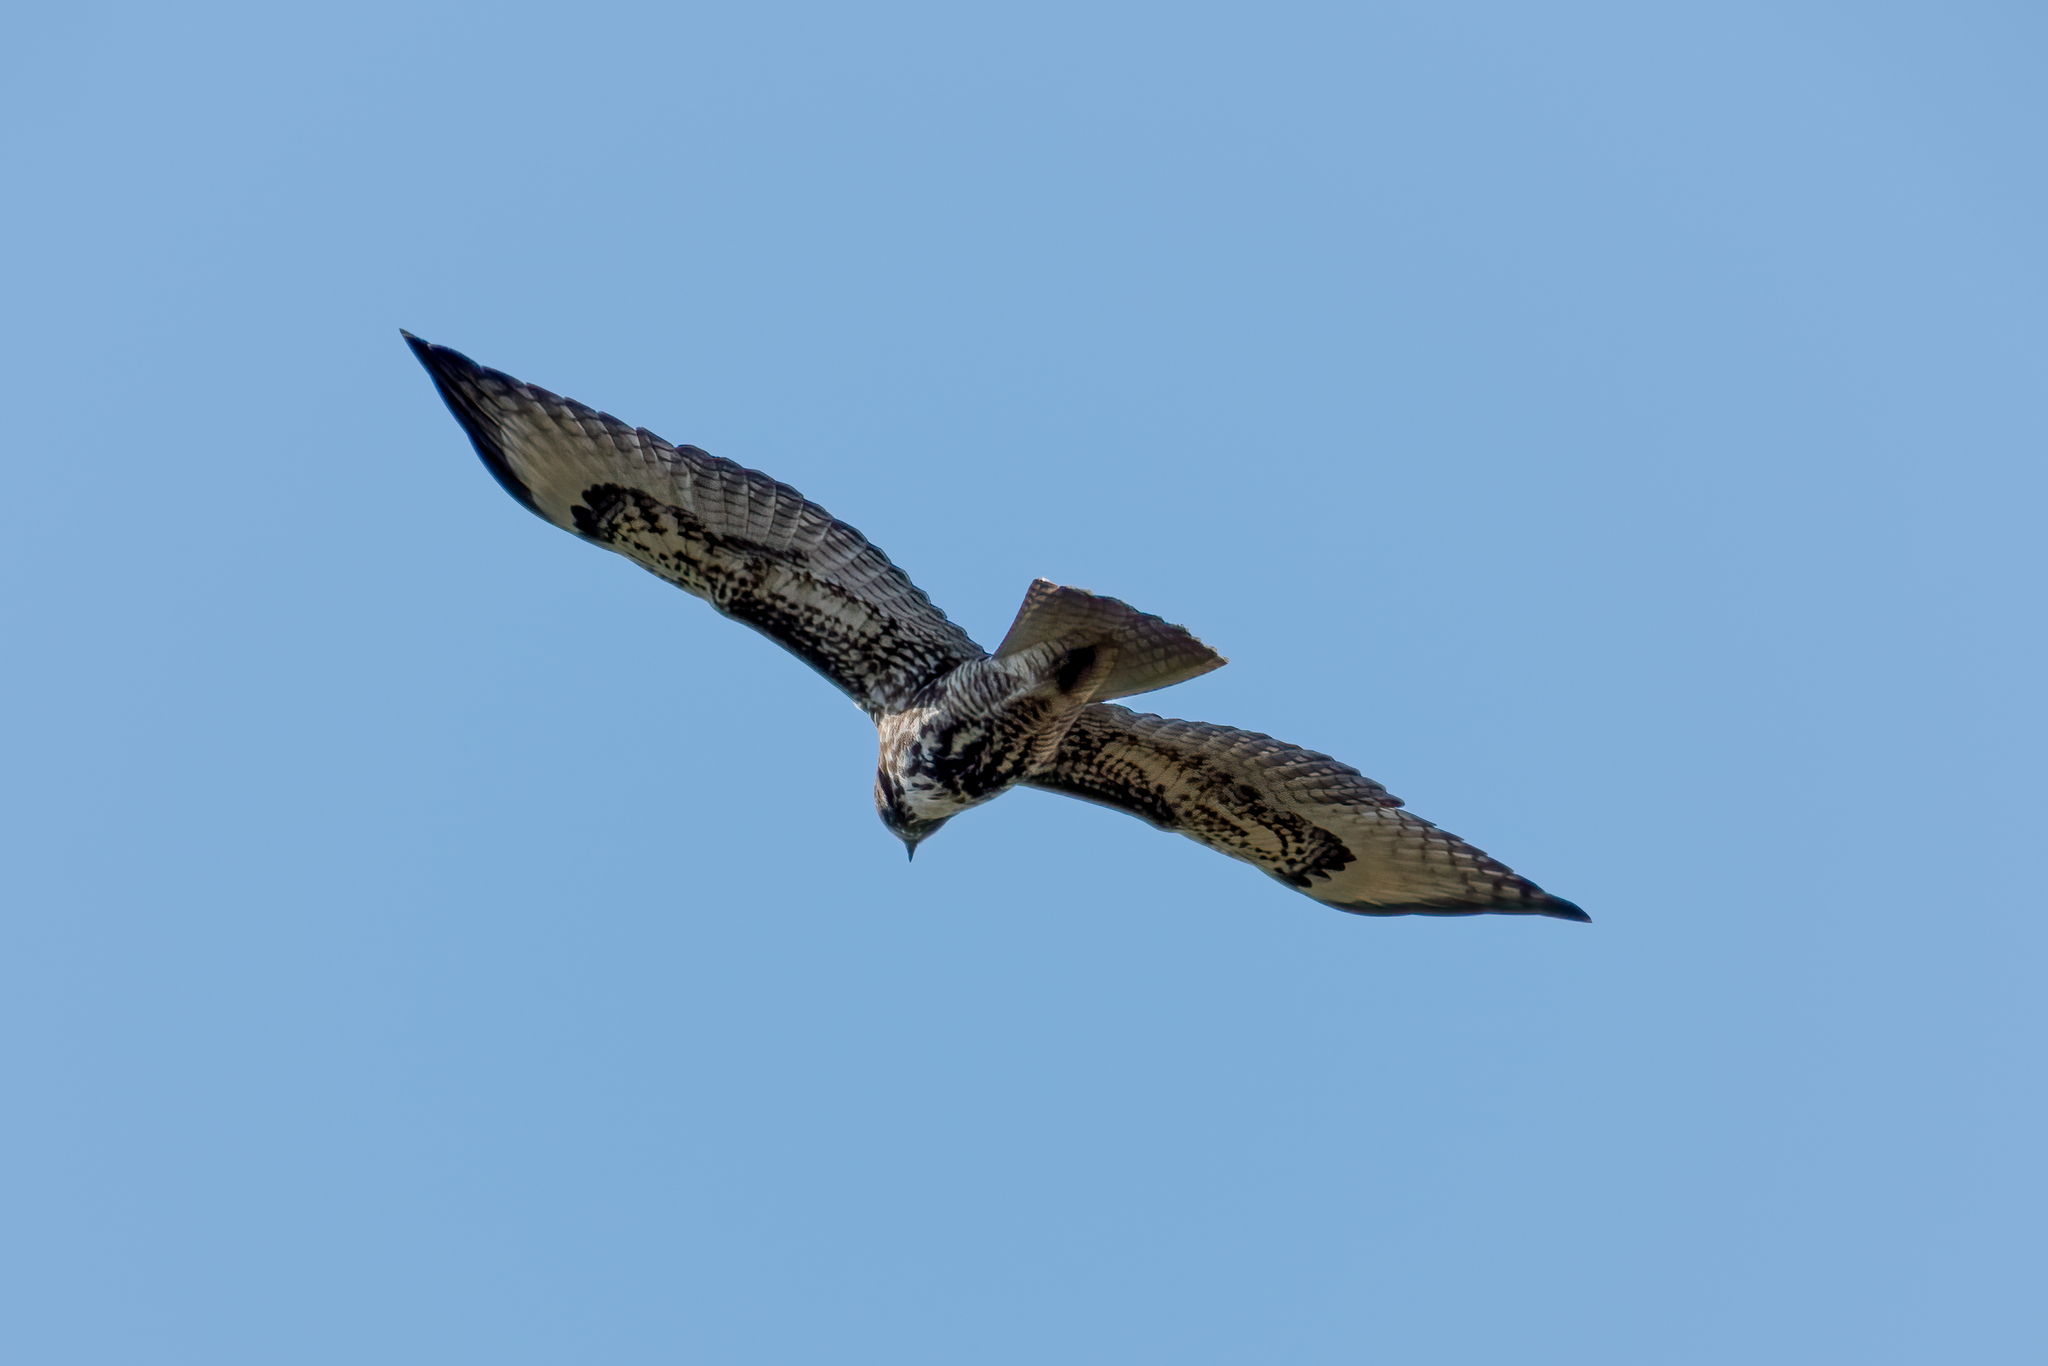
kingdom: Animalia
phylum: Chordata
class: Aves
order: Accipitriformes
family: Accipitridae
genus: Buteo
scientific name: Buteo jamaicensis
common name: Red-tailed hawk
